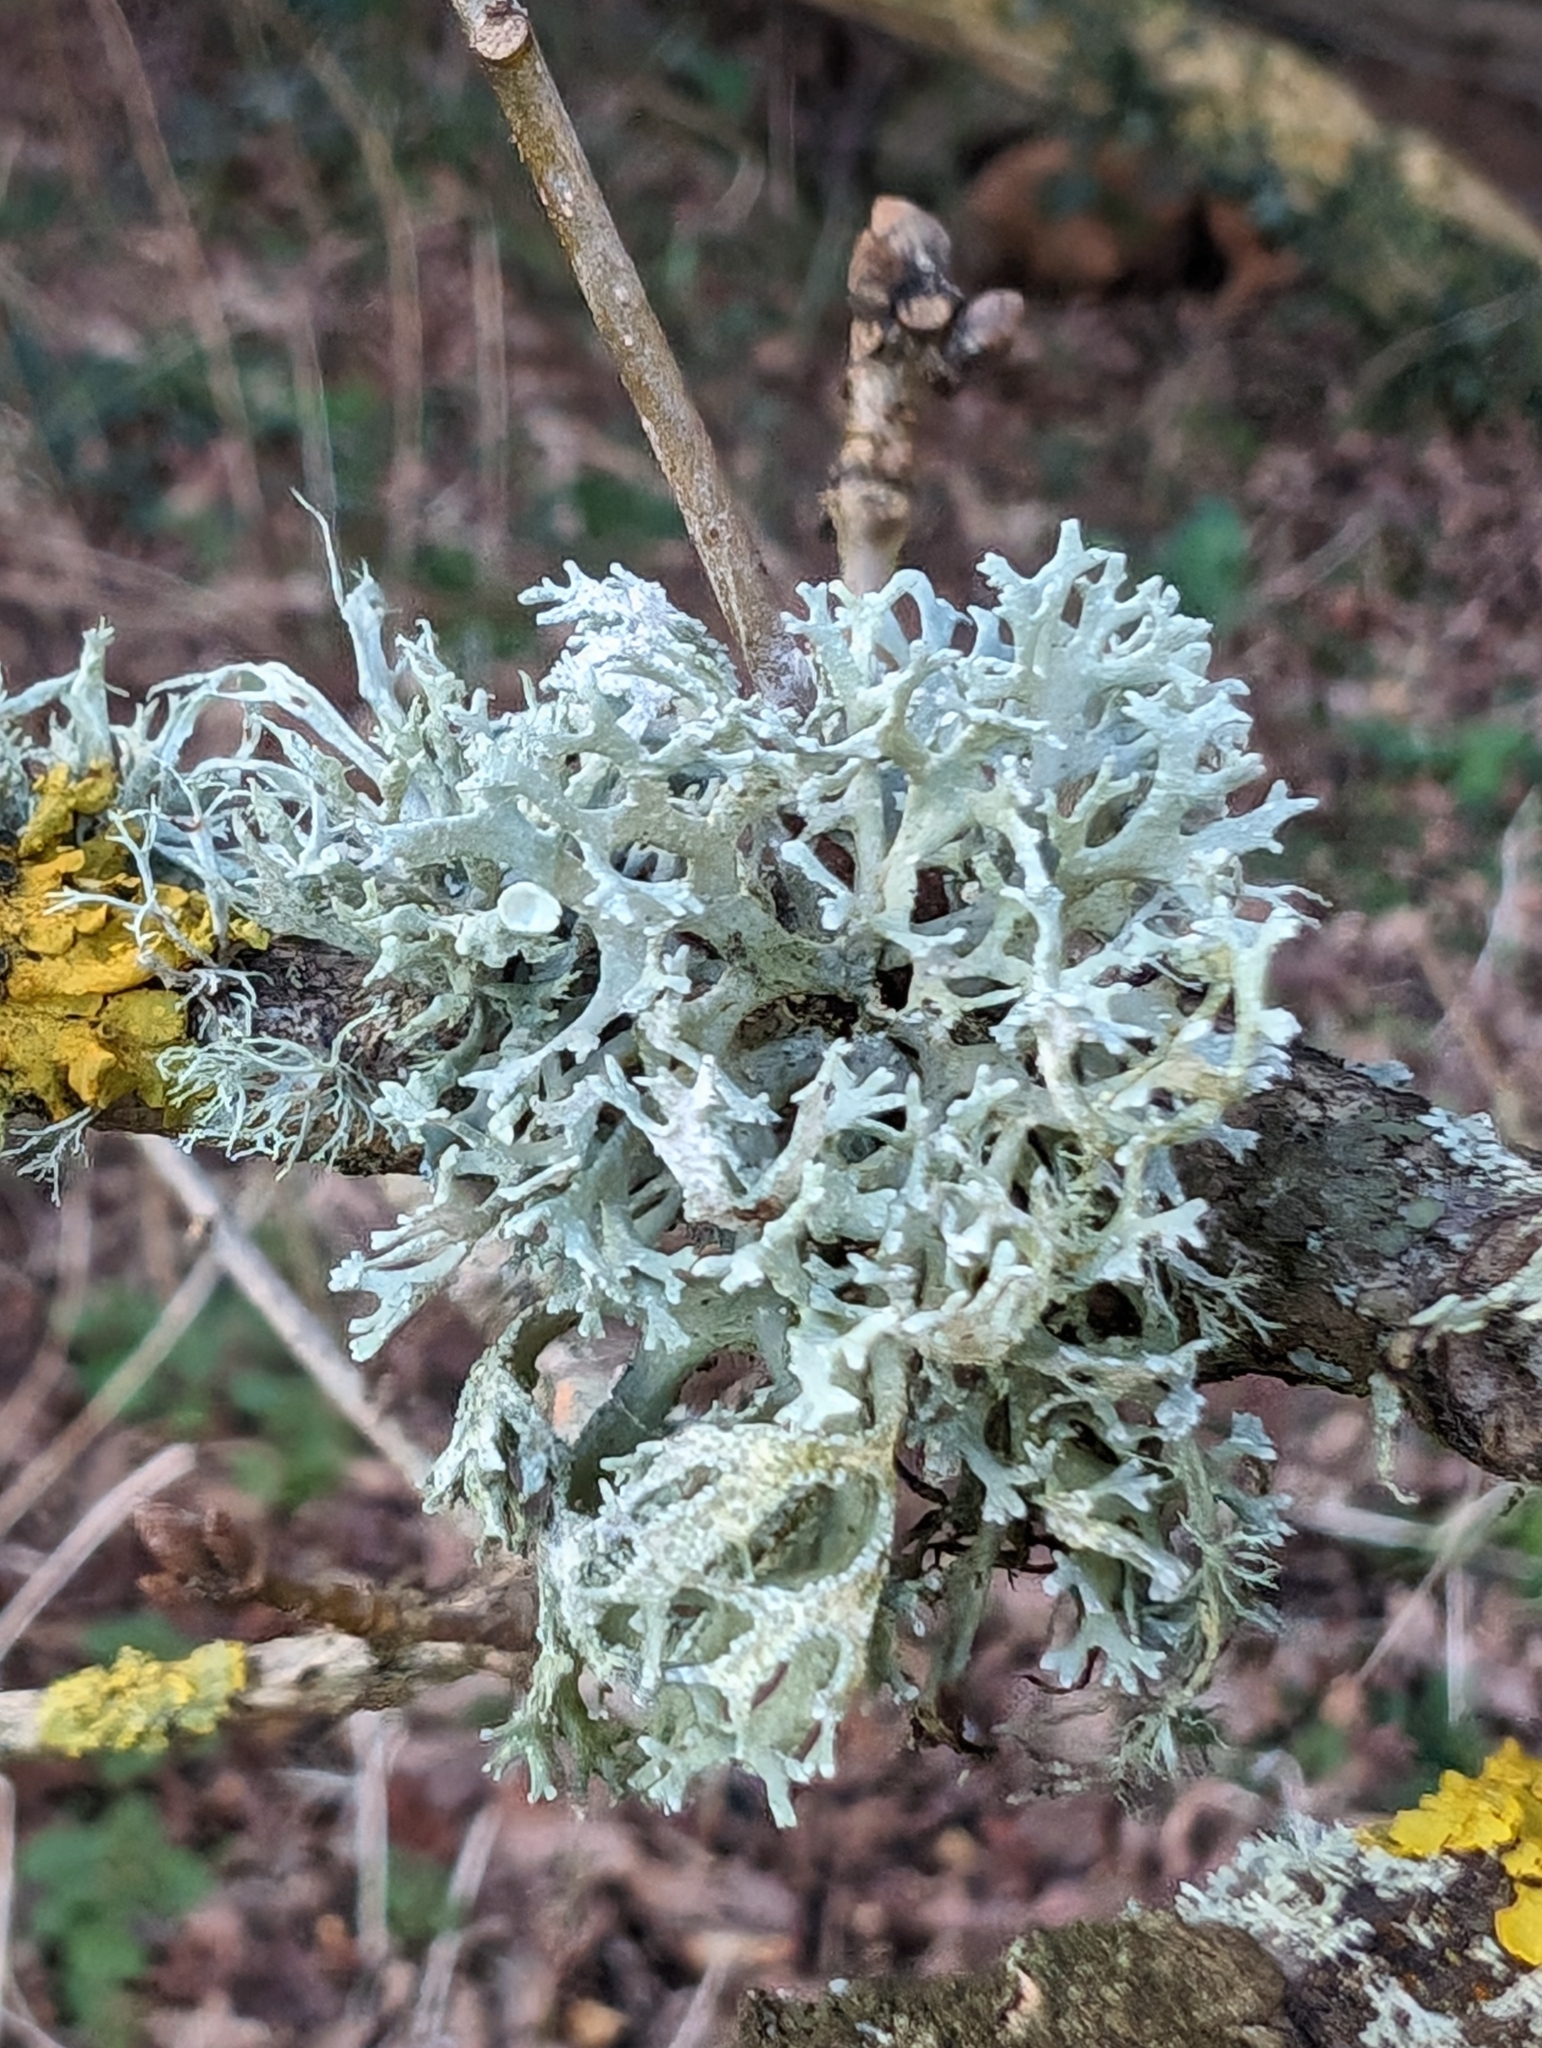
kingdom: Fungi
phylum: Ascomycota
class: Lecanoromycetes
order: Lecanorales
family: Parmeliaceae
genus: Evernia
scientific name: Evernia prunastri
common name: Oak moss
